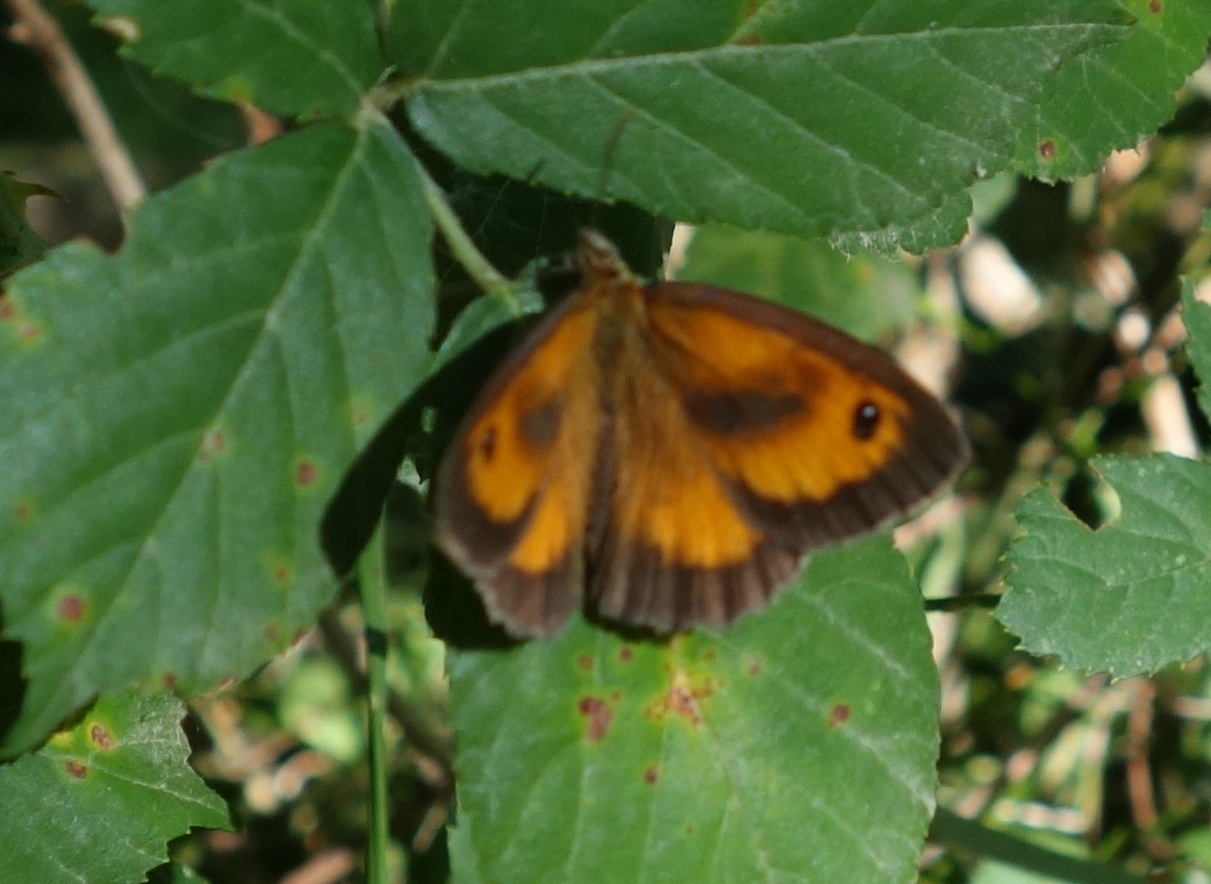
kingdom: Animalia
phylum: Arthropoda
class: Insecta
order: Lepidoptera
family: Nymphalidae
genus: Pyronia
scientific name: Pyronia tithonus
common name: Gatekeeper
